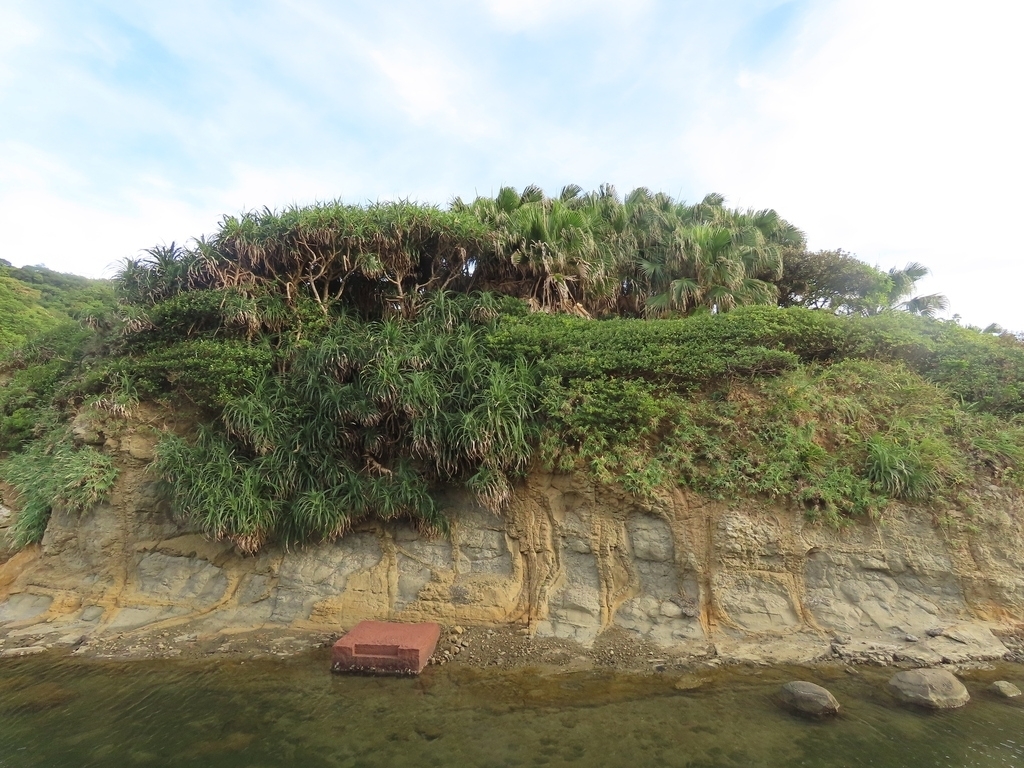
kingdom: Plantae
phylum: Tracheophyta
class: Liliopsida
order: Pandanales
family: Pandanaceae
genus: Pandanus
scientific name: Pandanus odorifer
